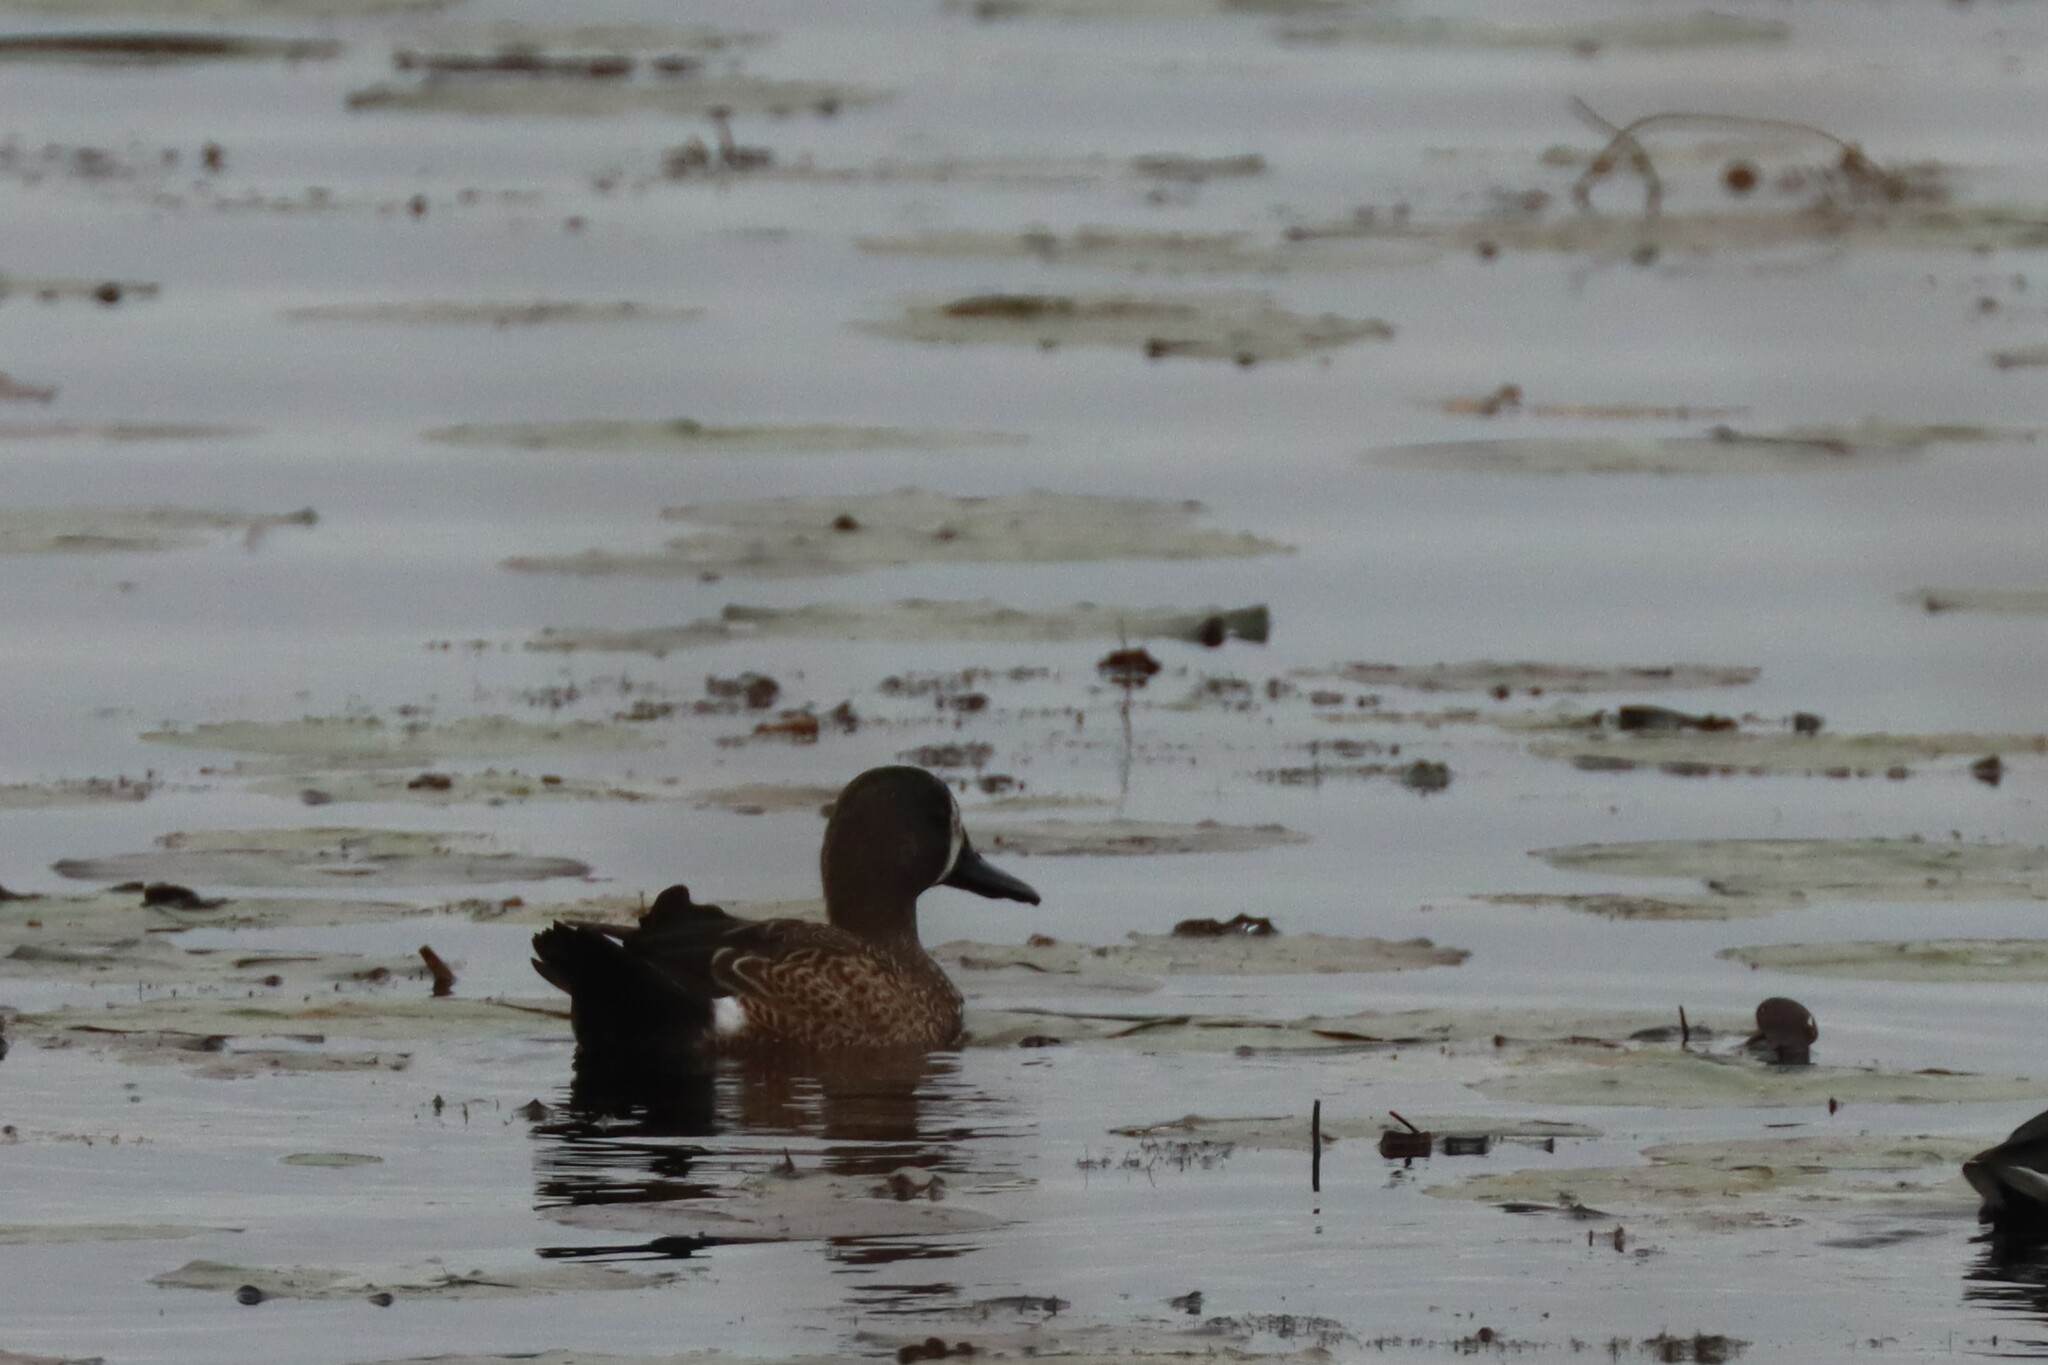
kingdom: Animalia
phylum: Chordata
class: Aves
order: Anseriformes
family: Anatidae
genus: Spatula
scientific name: Spatula discors
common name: Blue-winged teal
